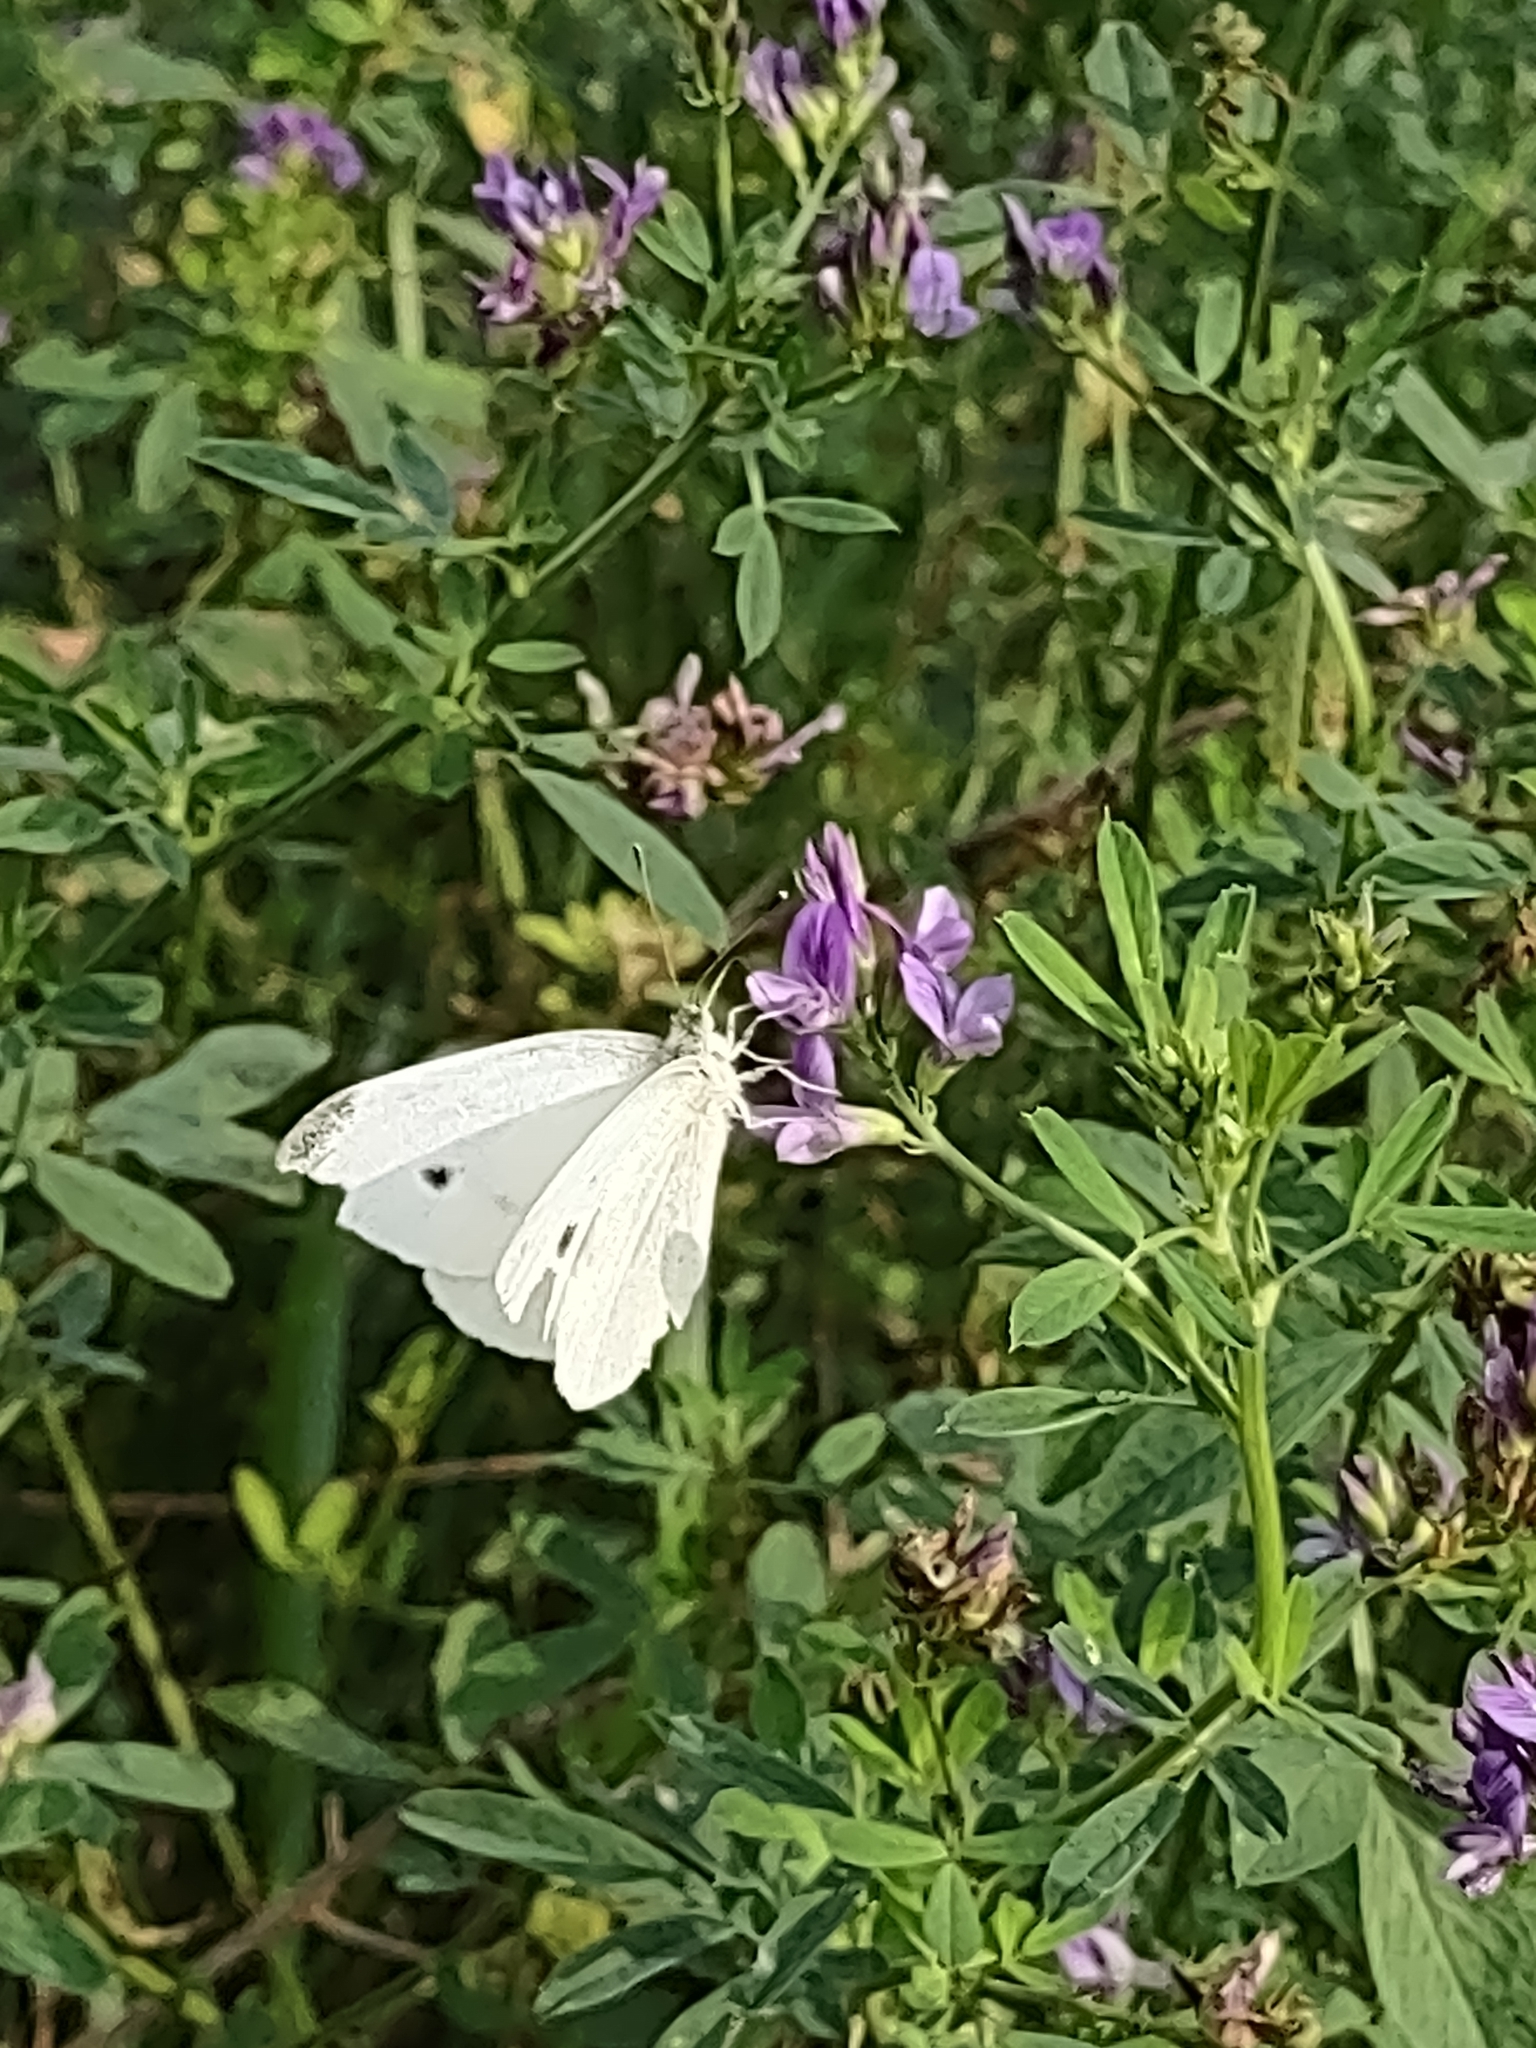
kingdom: Animalia
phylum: Arthropoda
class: Insecta
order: Lepidoptera
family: Pieridae
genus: Pieris
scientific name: Pieris rapae
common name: Small white
